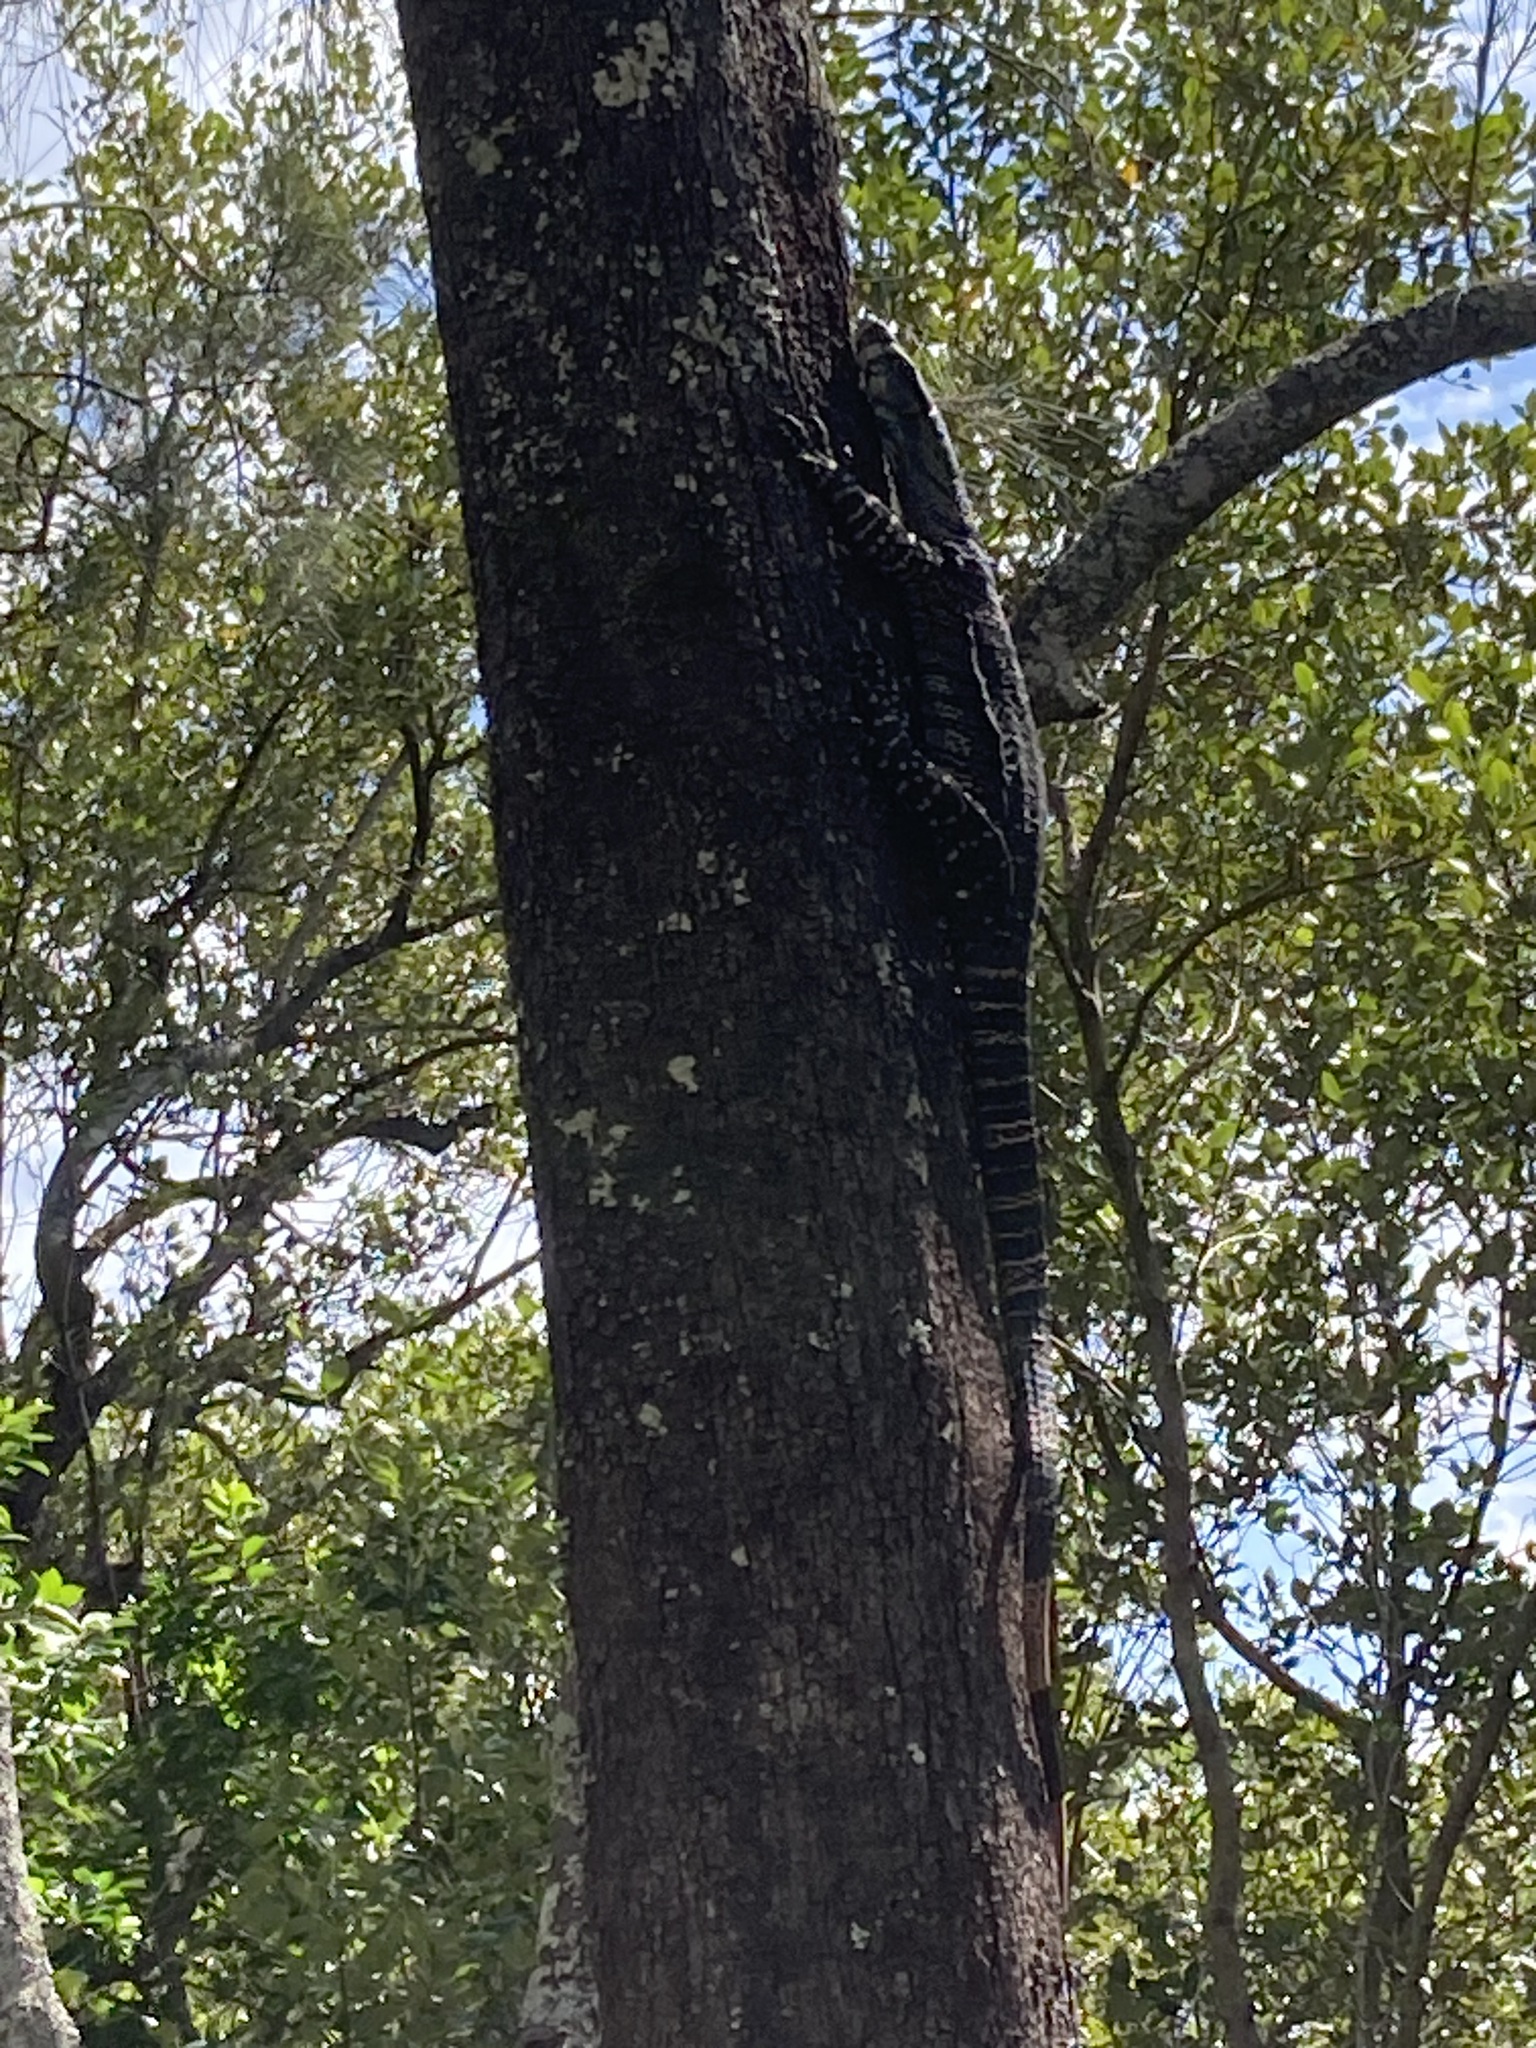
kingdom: Animalia
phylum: Chordata
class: Squamata
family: Varanidae
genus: Varanus
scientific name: Varanus varius
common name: Lace monitor
